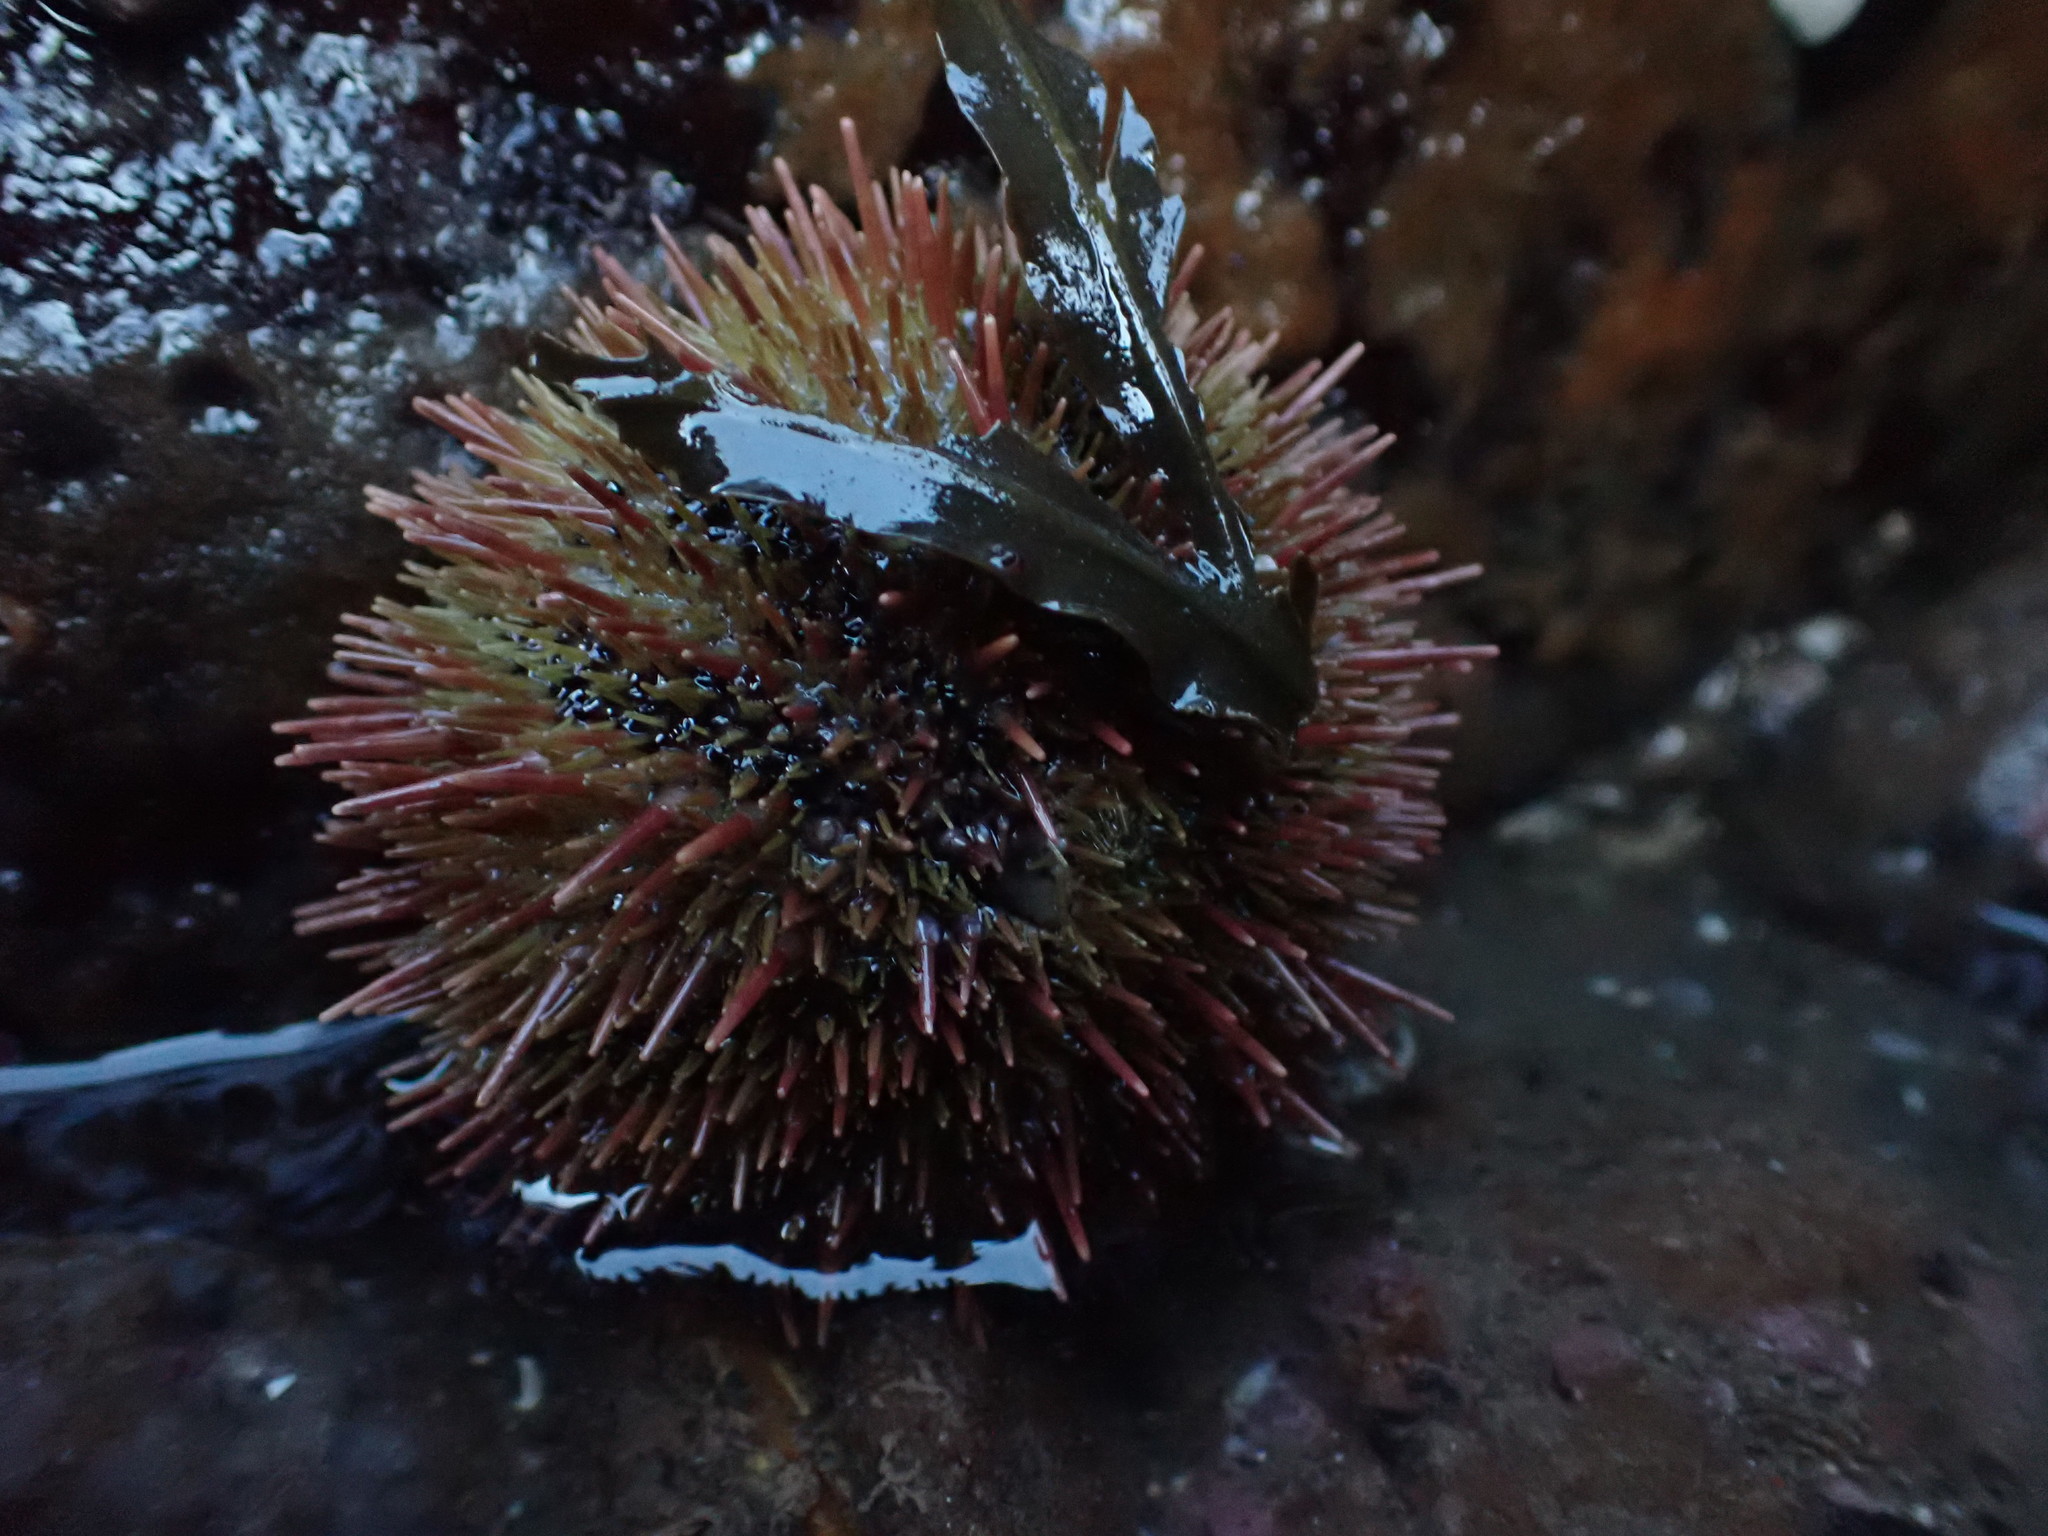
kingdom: Animalia
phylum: Echinodermata
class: Echinoidea
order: Camarodonta
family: Strongylocentrotidae
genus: Strongylocentrotus
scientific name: Strongylocentrotus droebachiensis
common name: Northern sea urchin
